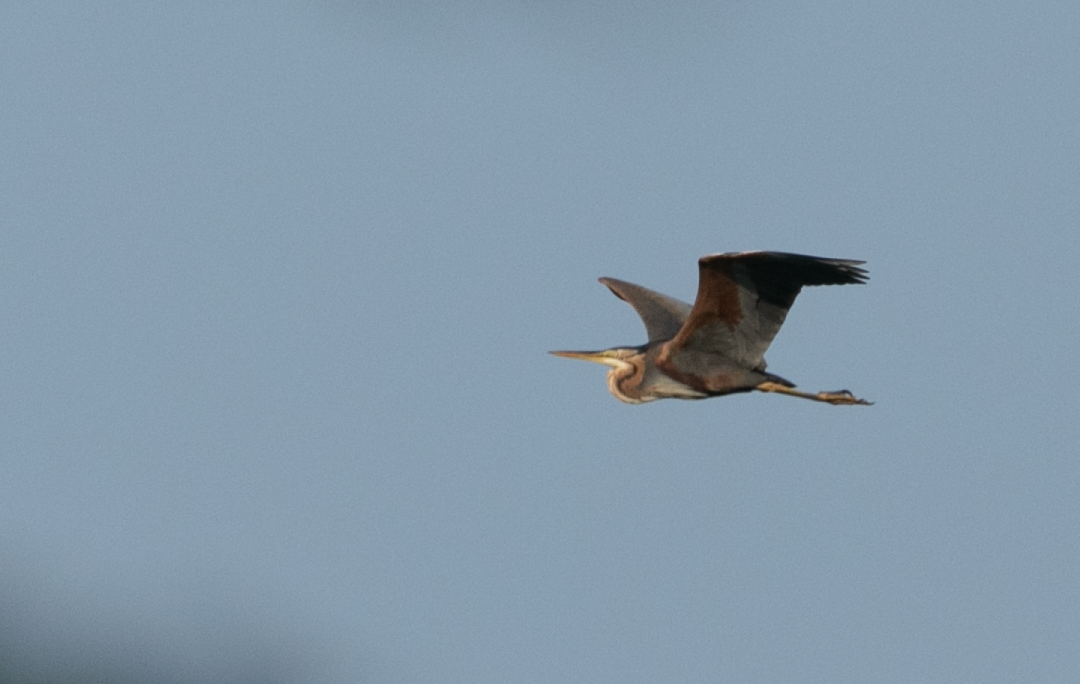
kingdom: Animalia
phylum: Chordata
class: Aves
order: Pelecaniformes
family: Ardeidae
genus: Ardea
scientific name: Ardea purpurea
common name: Purple heron
